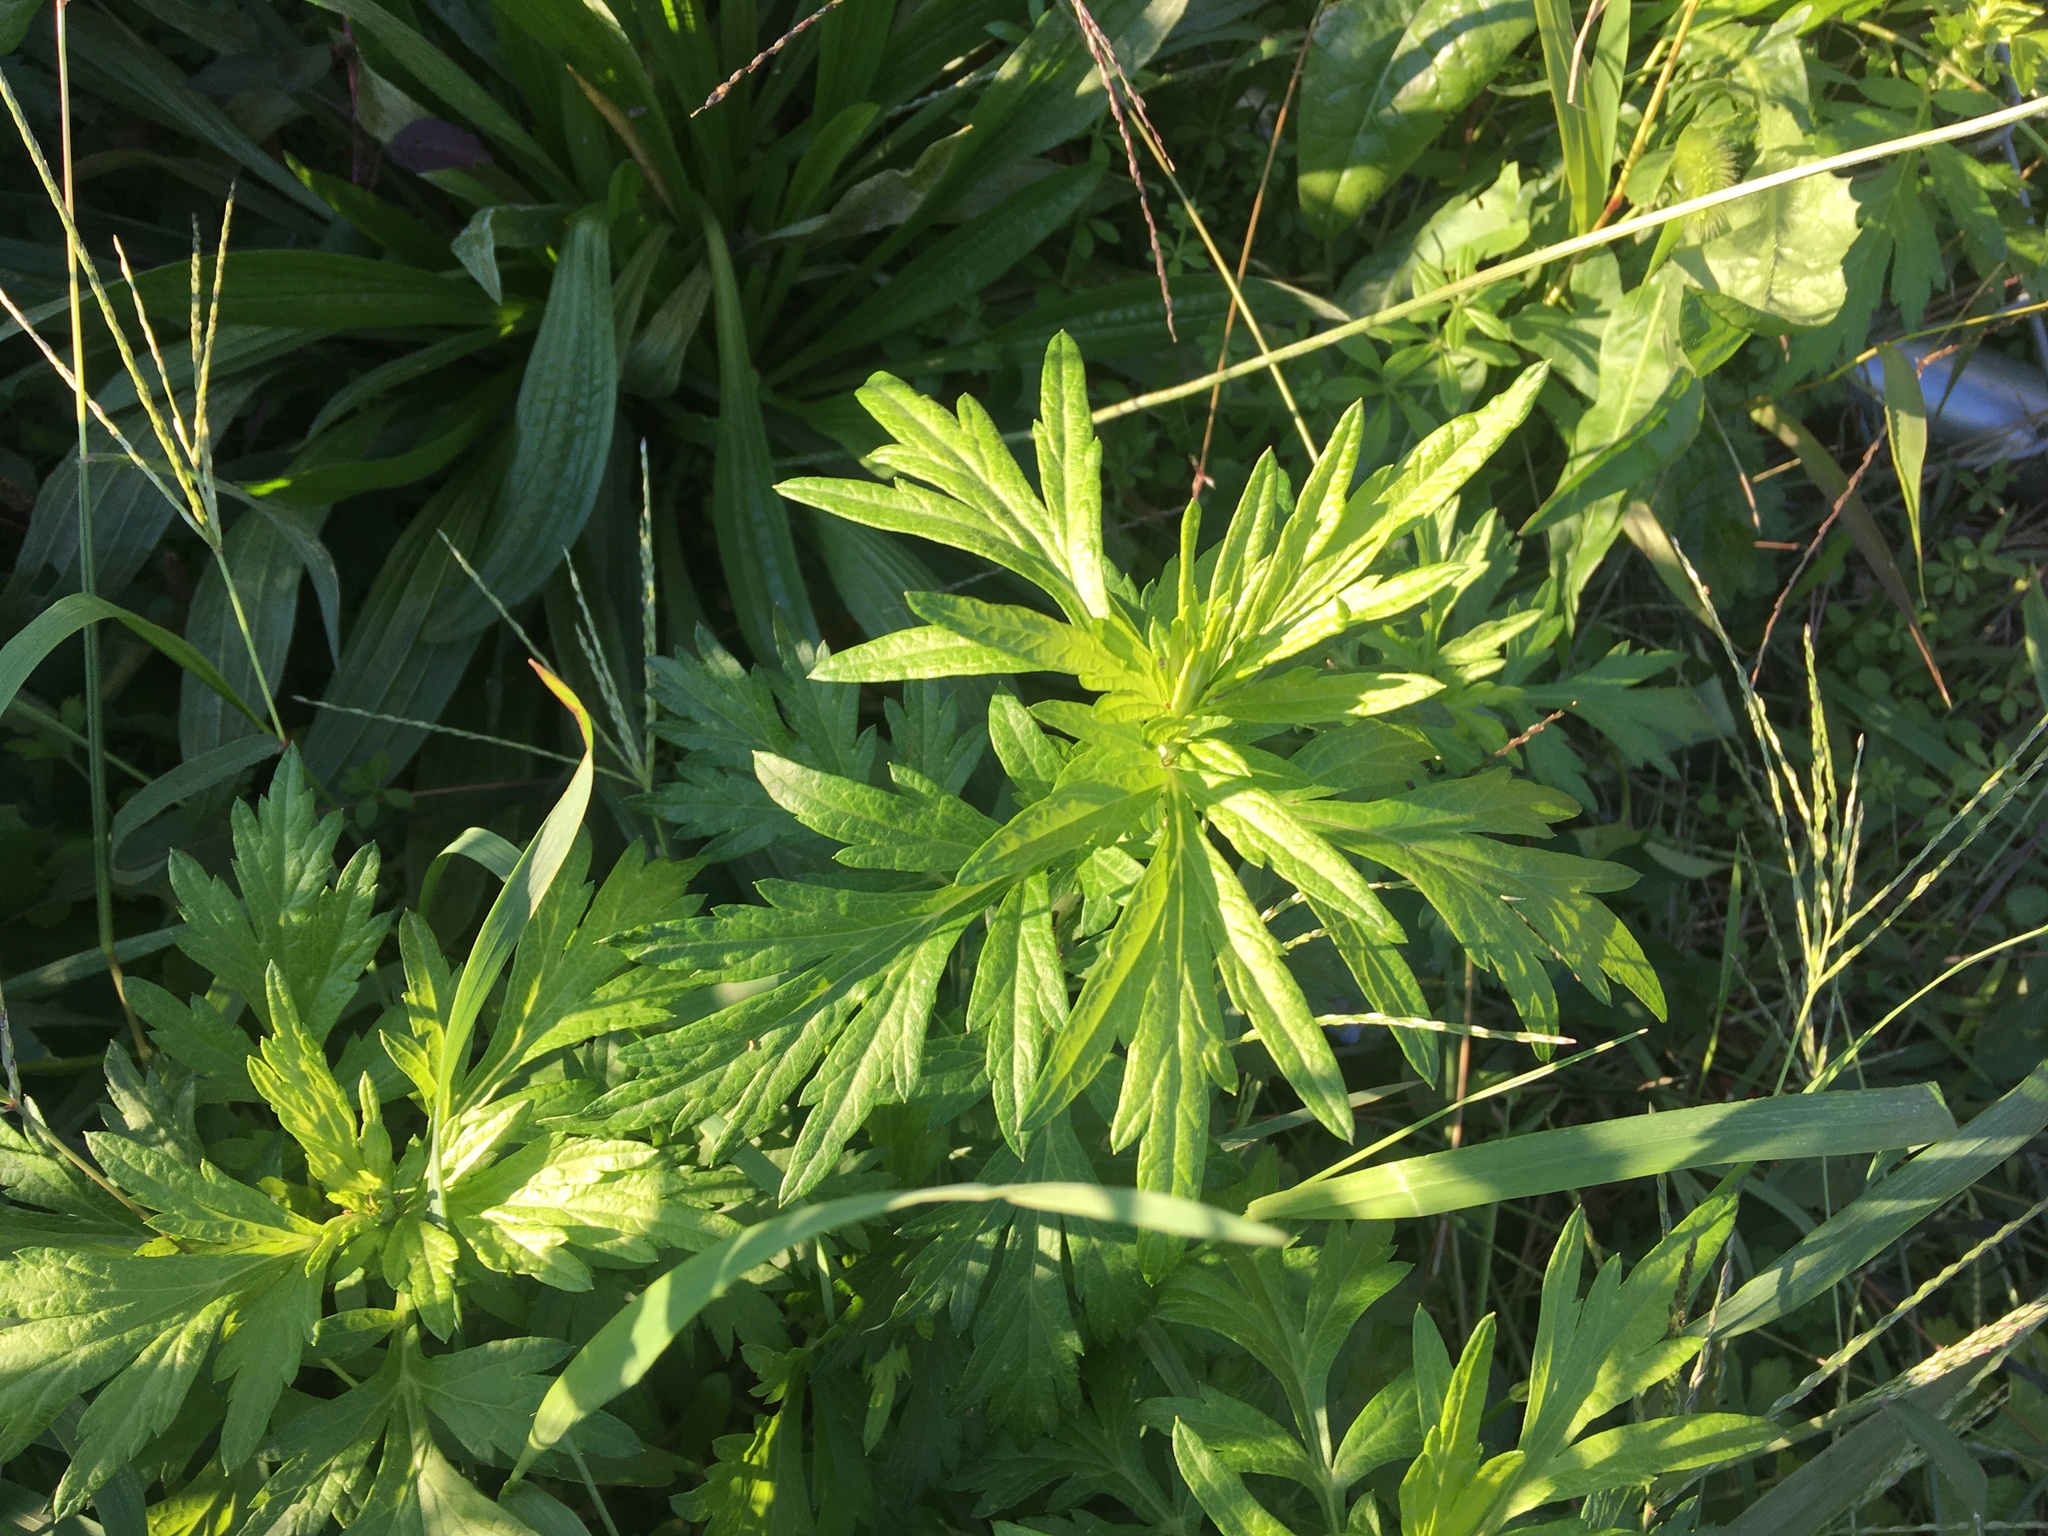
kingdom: Plantae
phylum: Tracheophyta
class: Magnoliopsida
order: Asterales
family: Asteraceae
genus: Artemisia
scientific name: Artemisia vulgaris
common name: Mugwort
